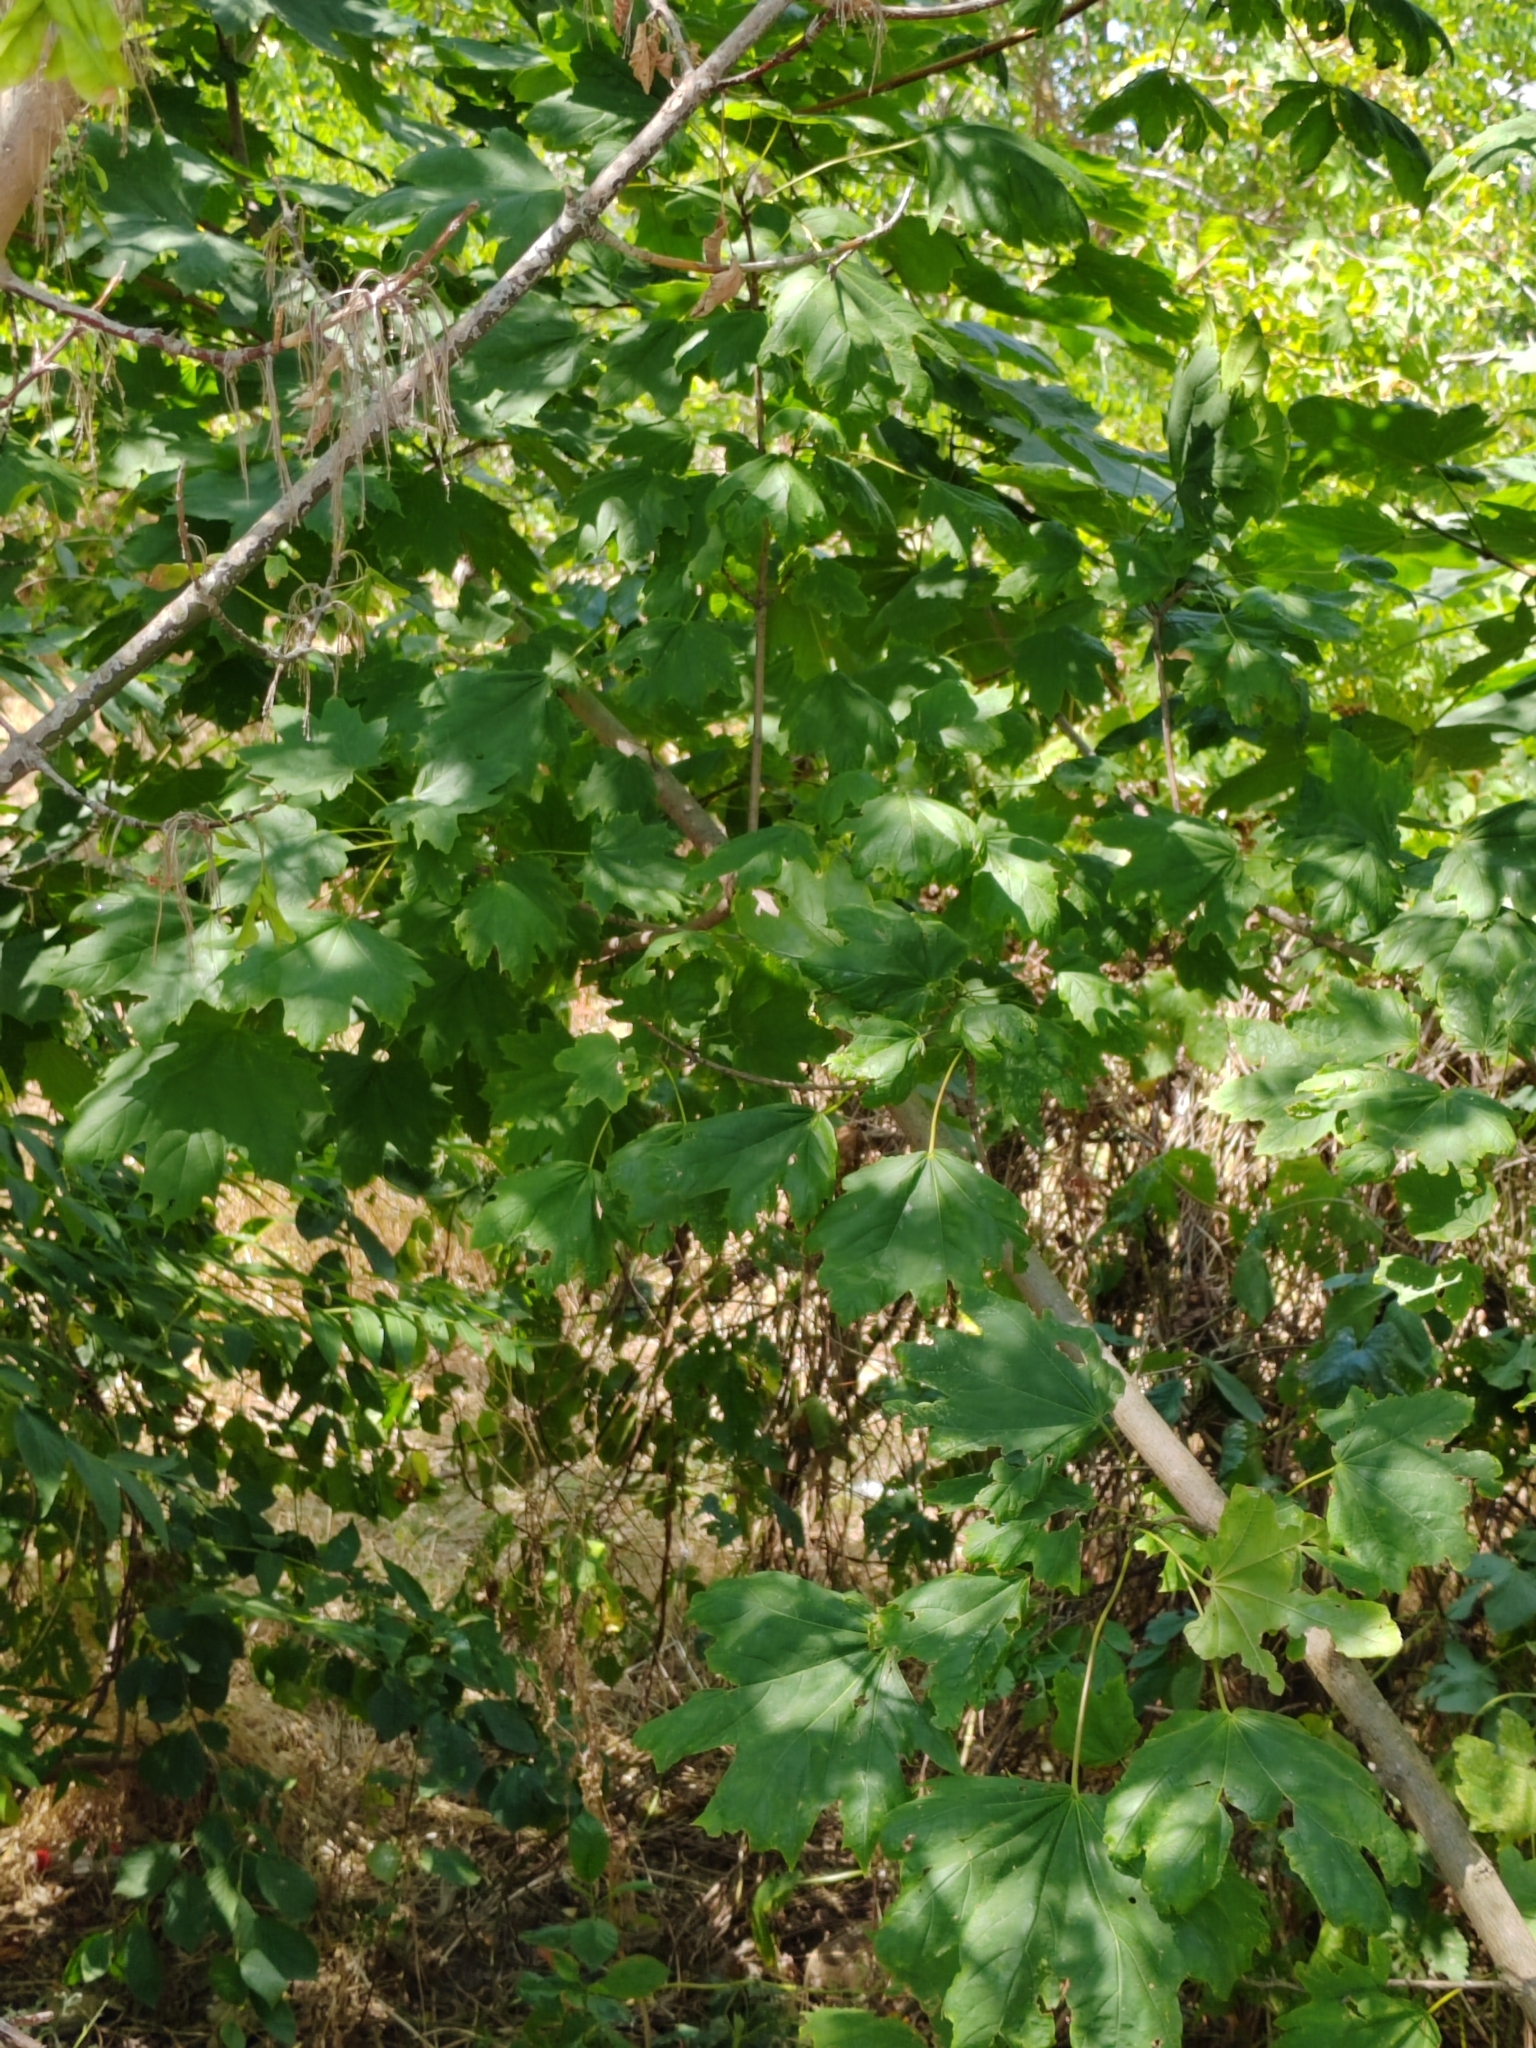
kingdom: Plantae
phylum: Tracheophyta
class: Magnoliopsida
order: Sapindales
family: Sapindaceae
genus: Acer
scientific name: Acer pseudoplatanus
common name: Sycamore
